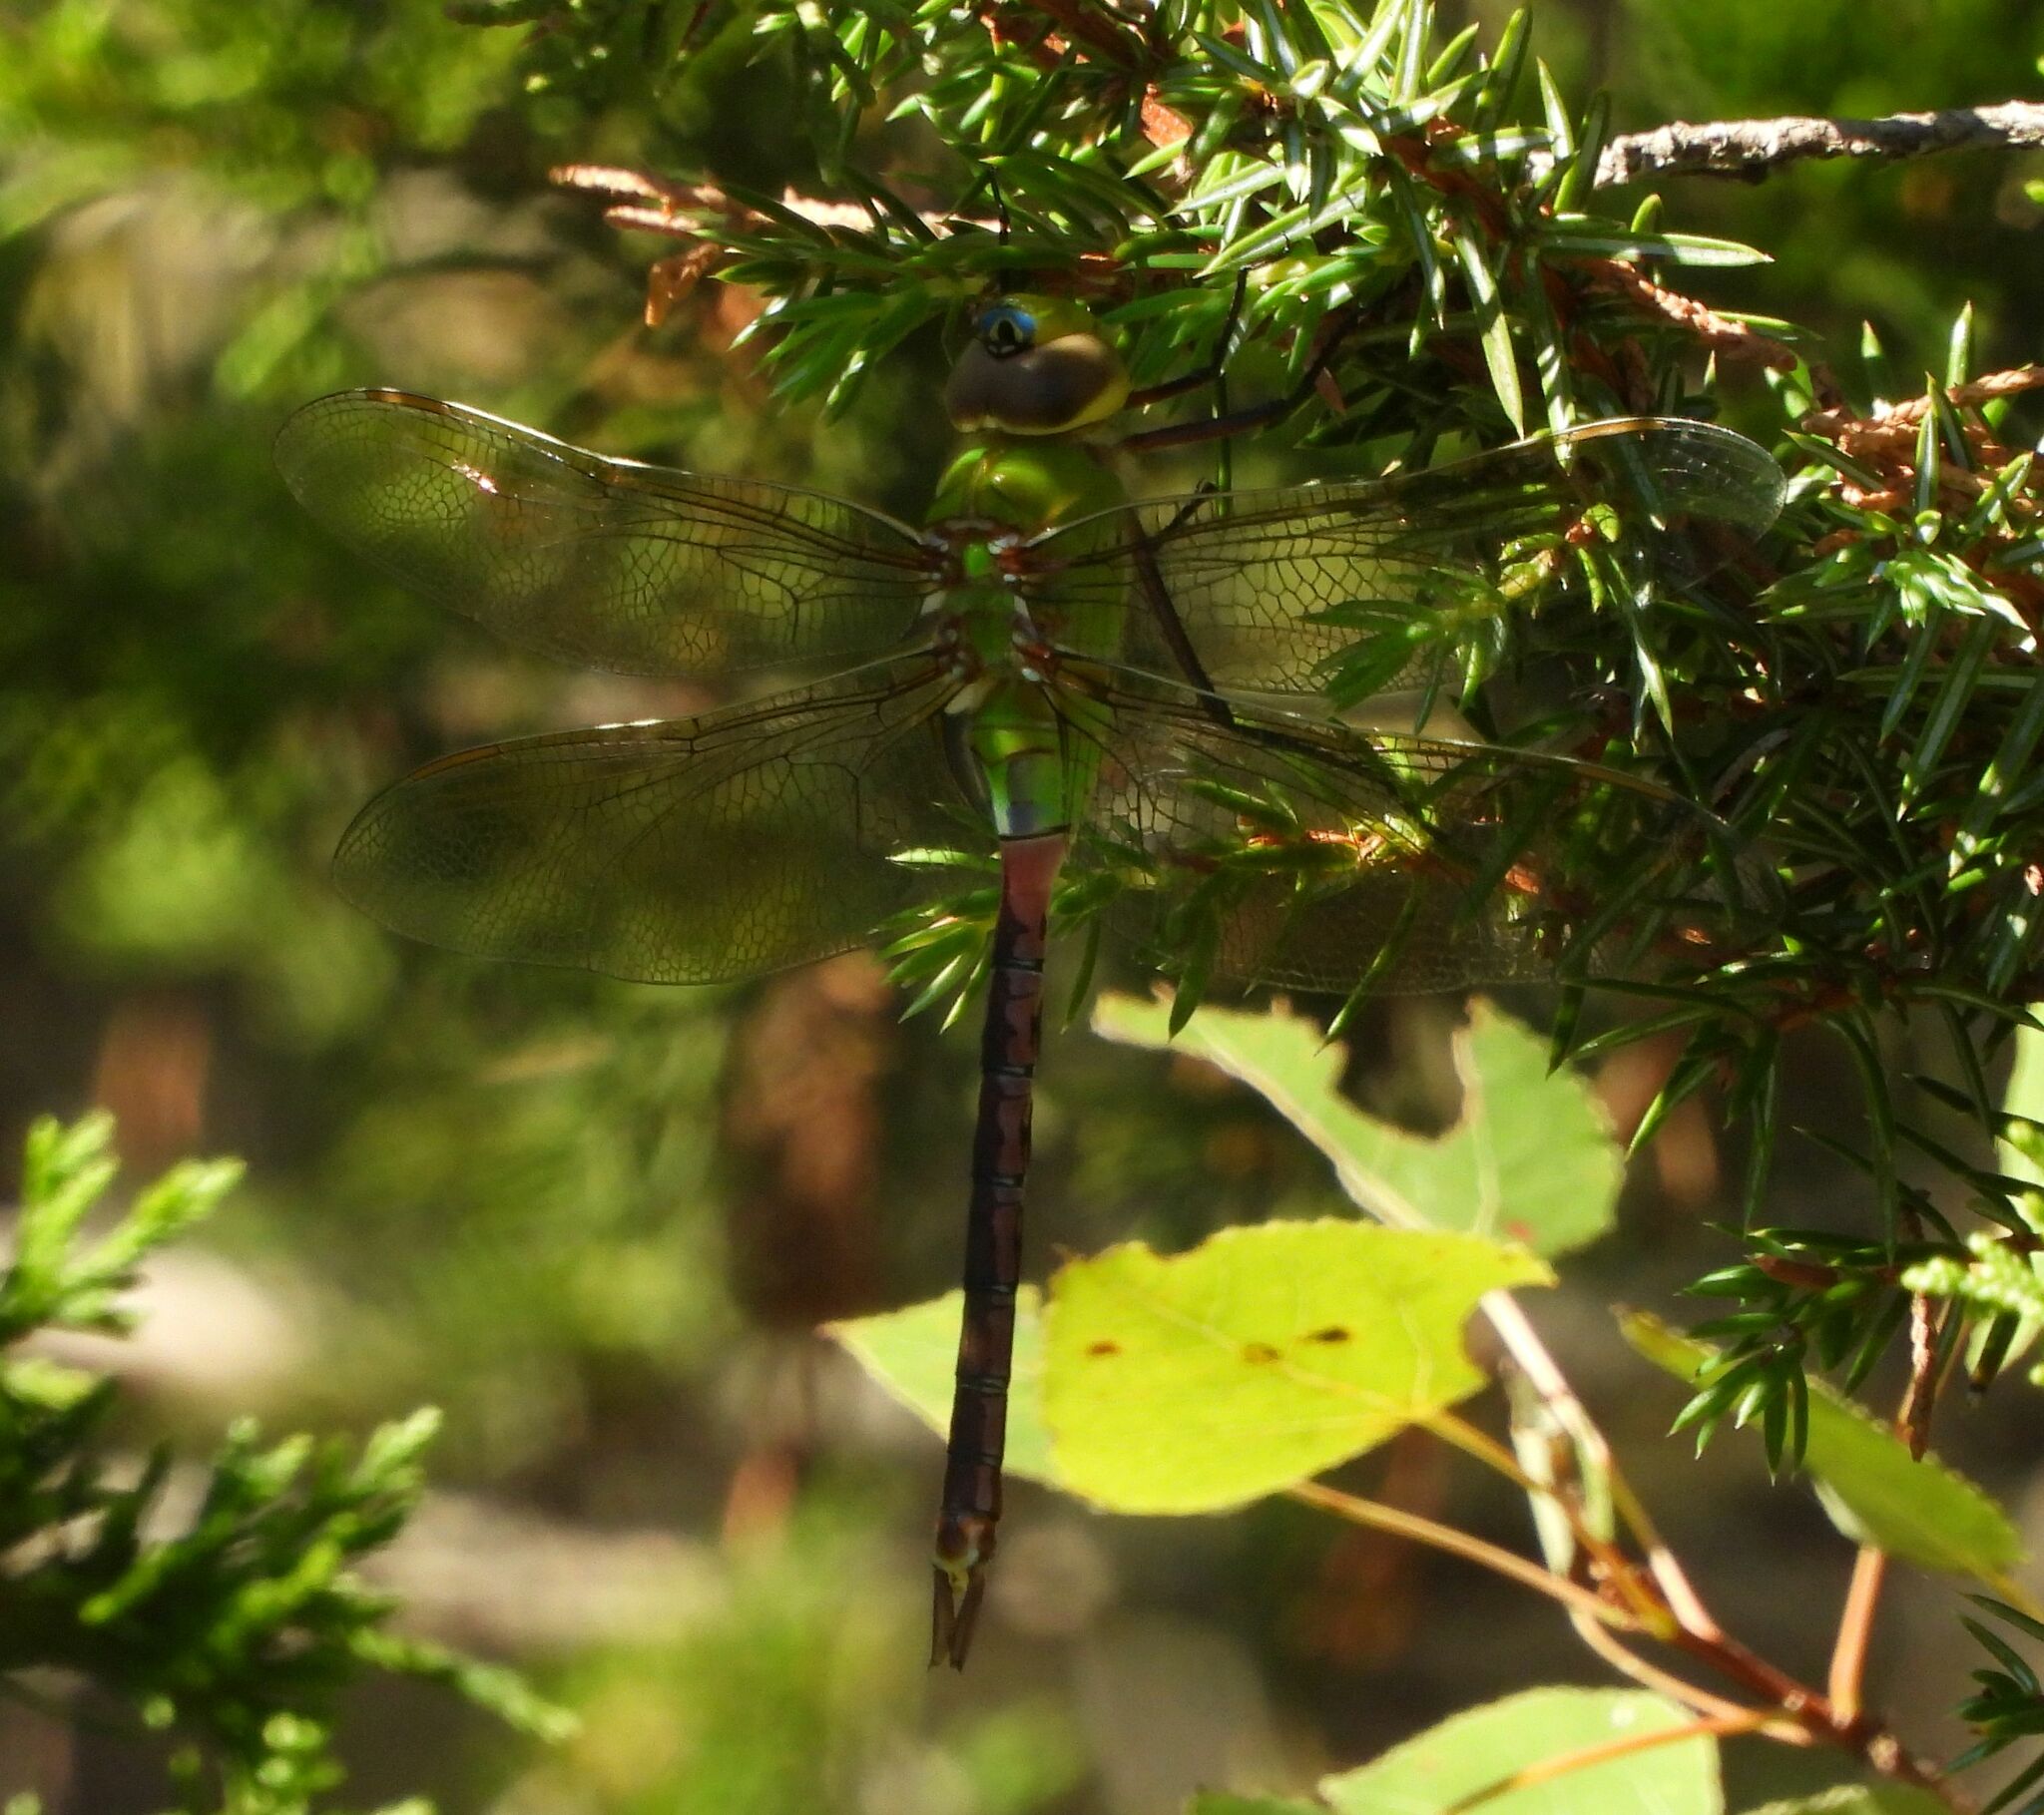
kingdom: Animalia
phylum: Arthropoda
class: Insecta
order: Odonata
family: Aeshnidae
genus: Anax
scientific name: Anax junius
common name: Common green darner
